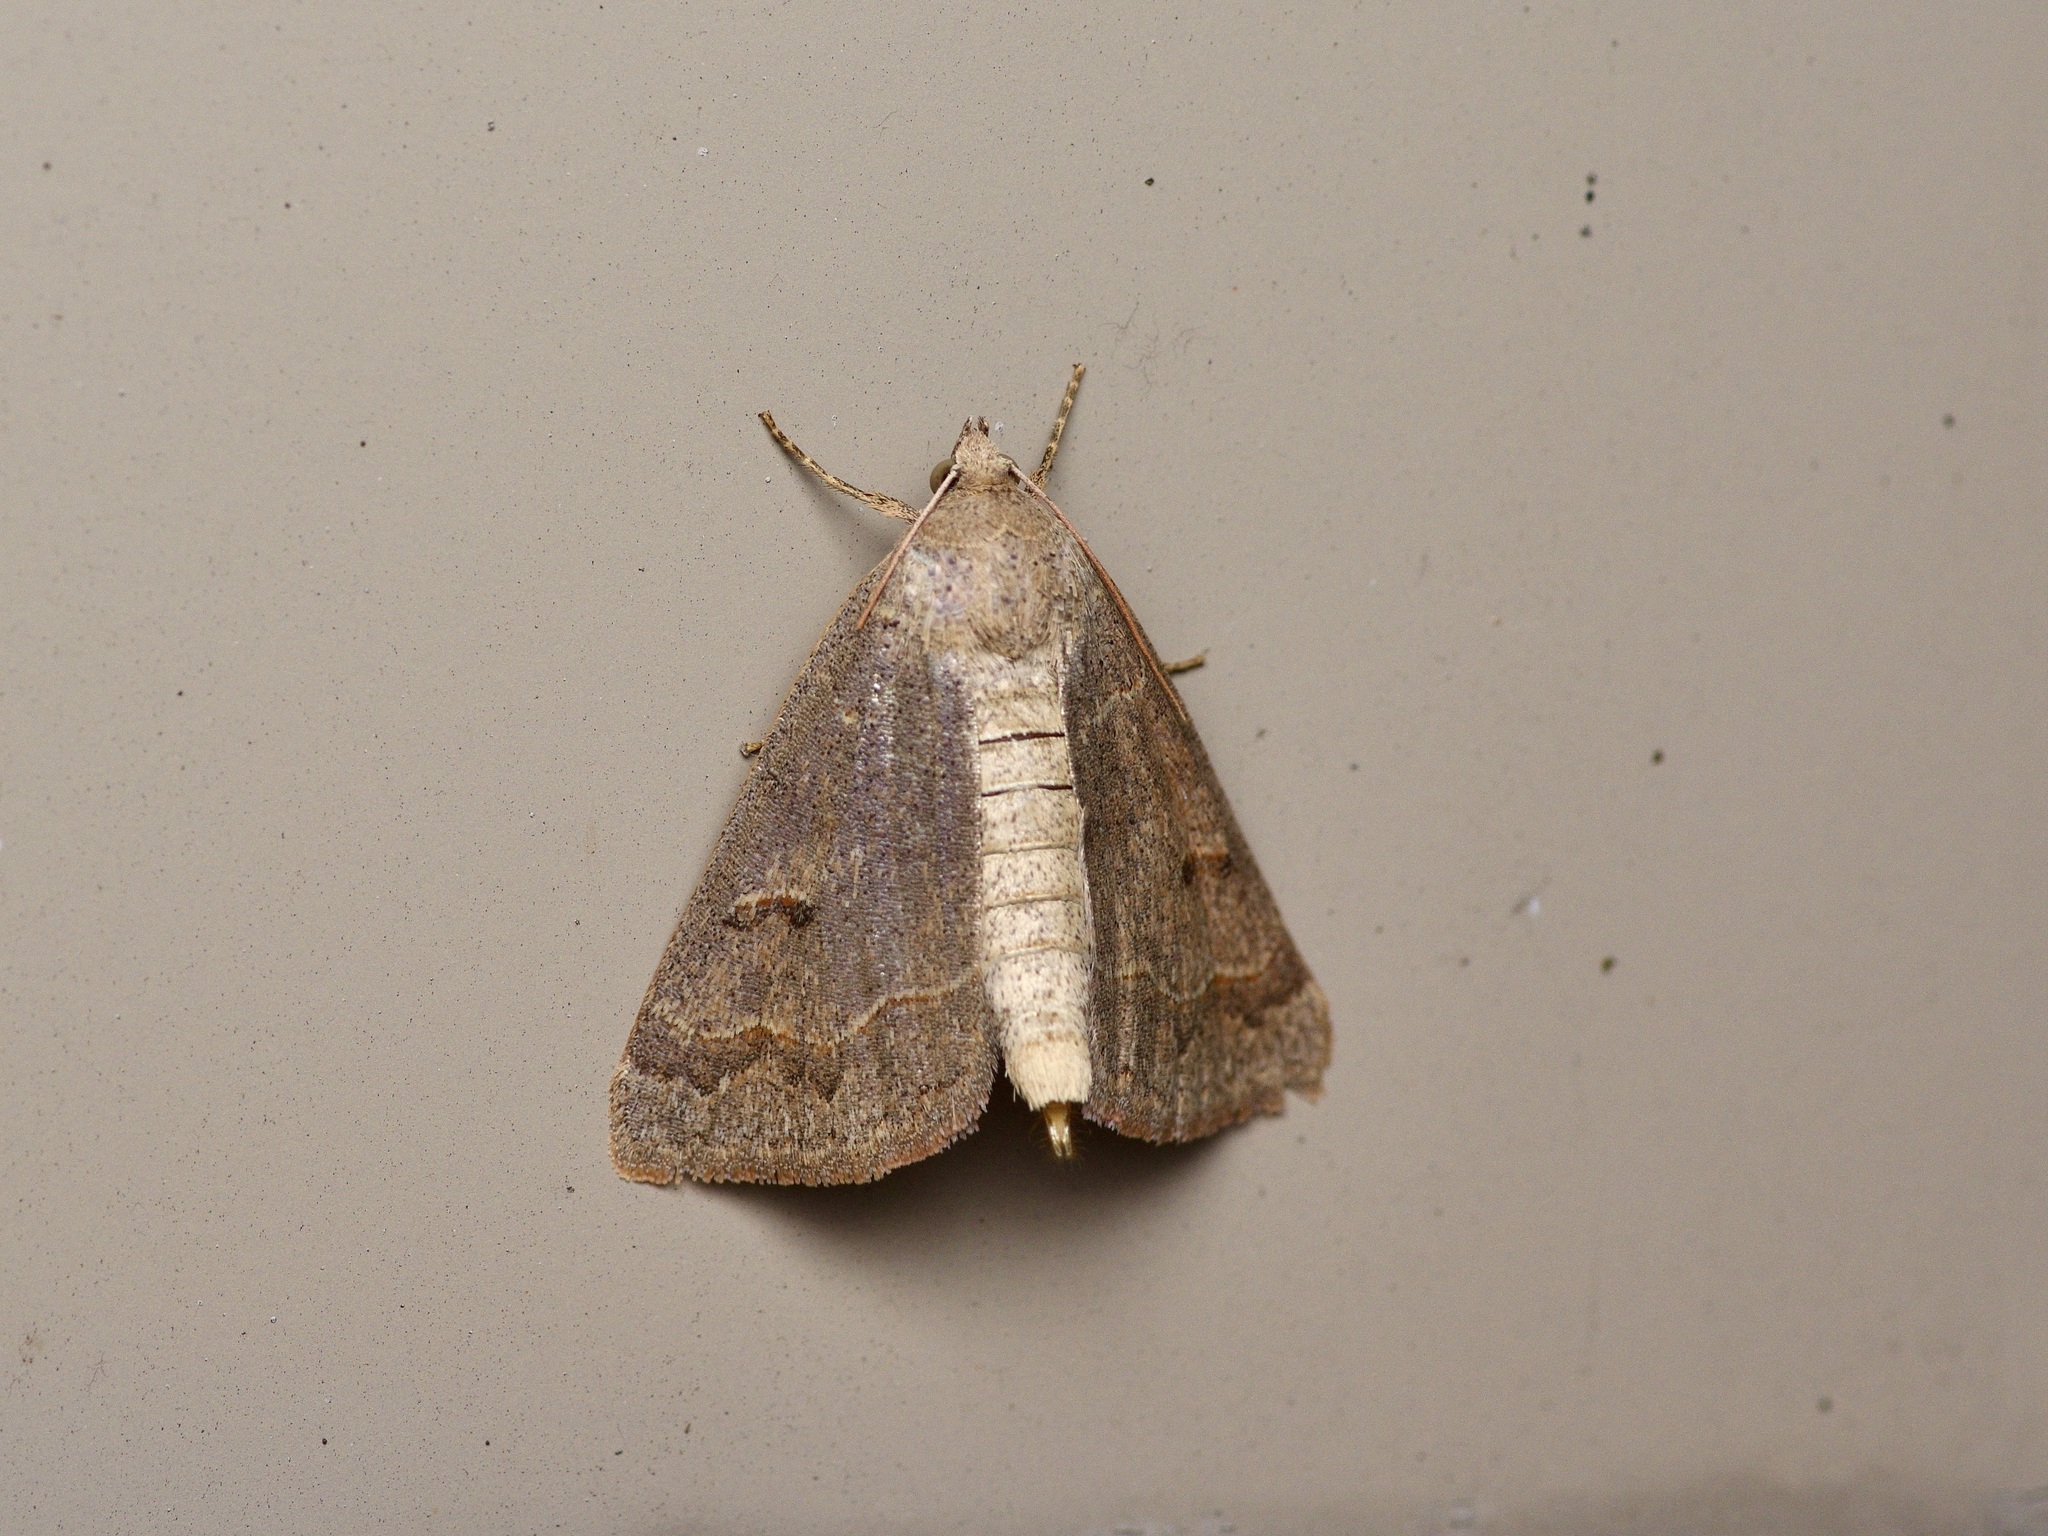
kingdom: Animalia
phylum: Arthropoda
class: Insecta
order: Lepidoptera
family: Erebidae
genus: Phoberia
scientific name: Phoberia atomaris
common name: Common oak moth
